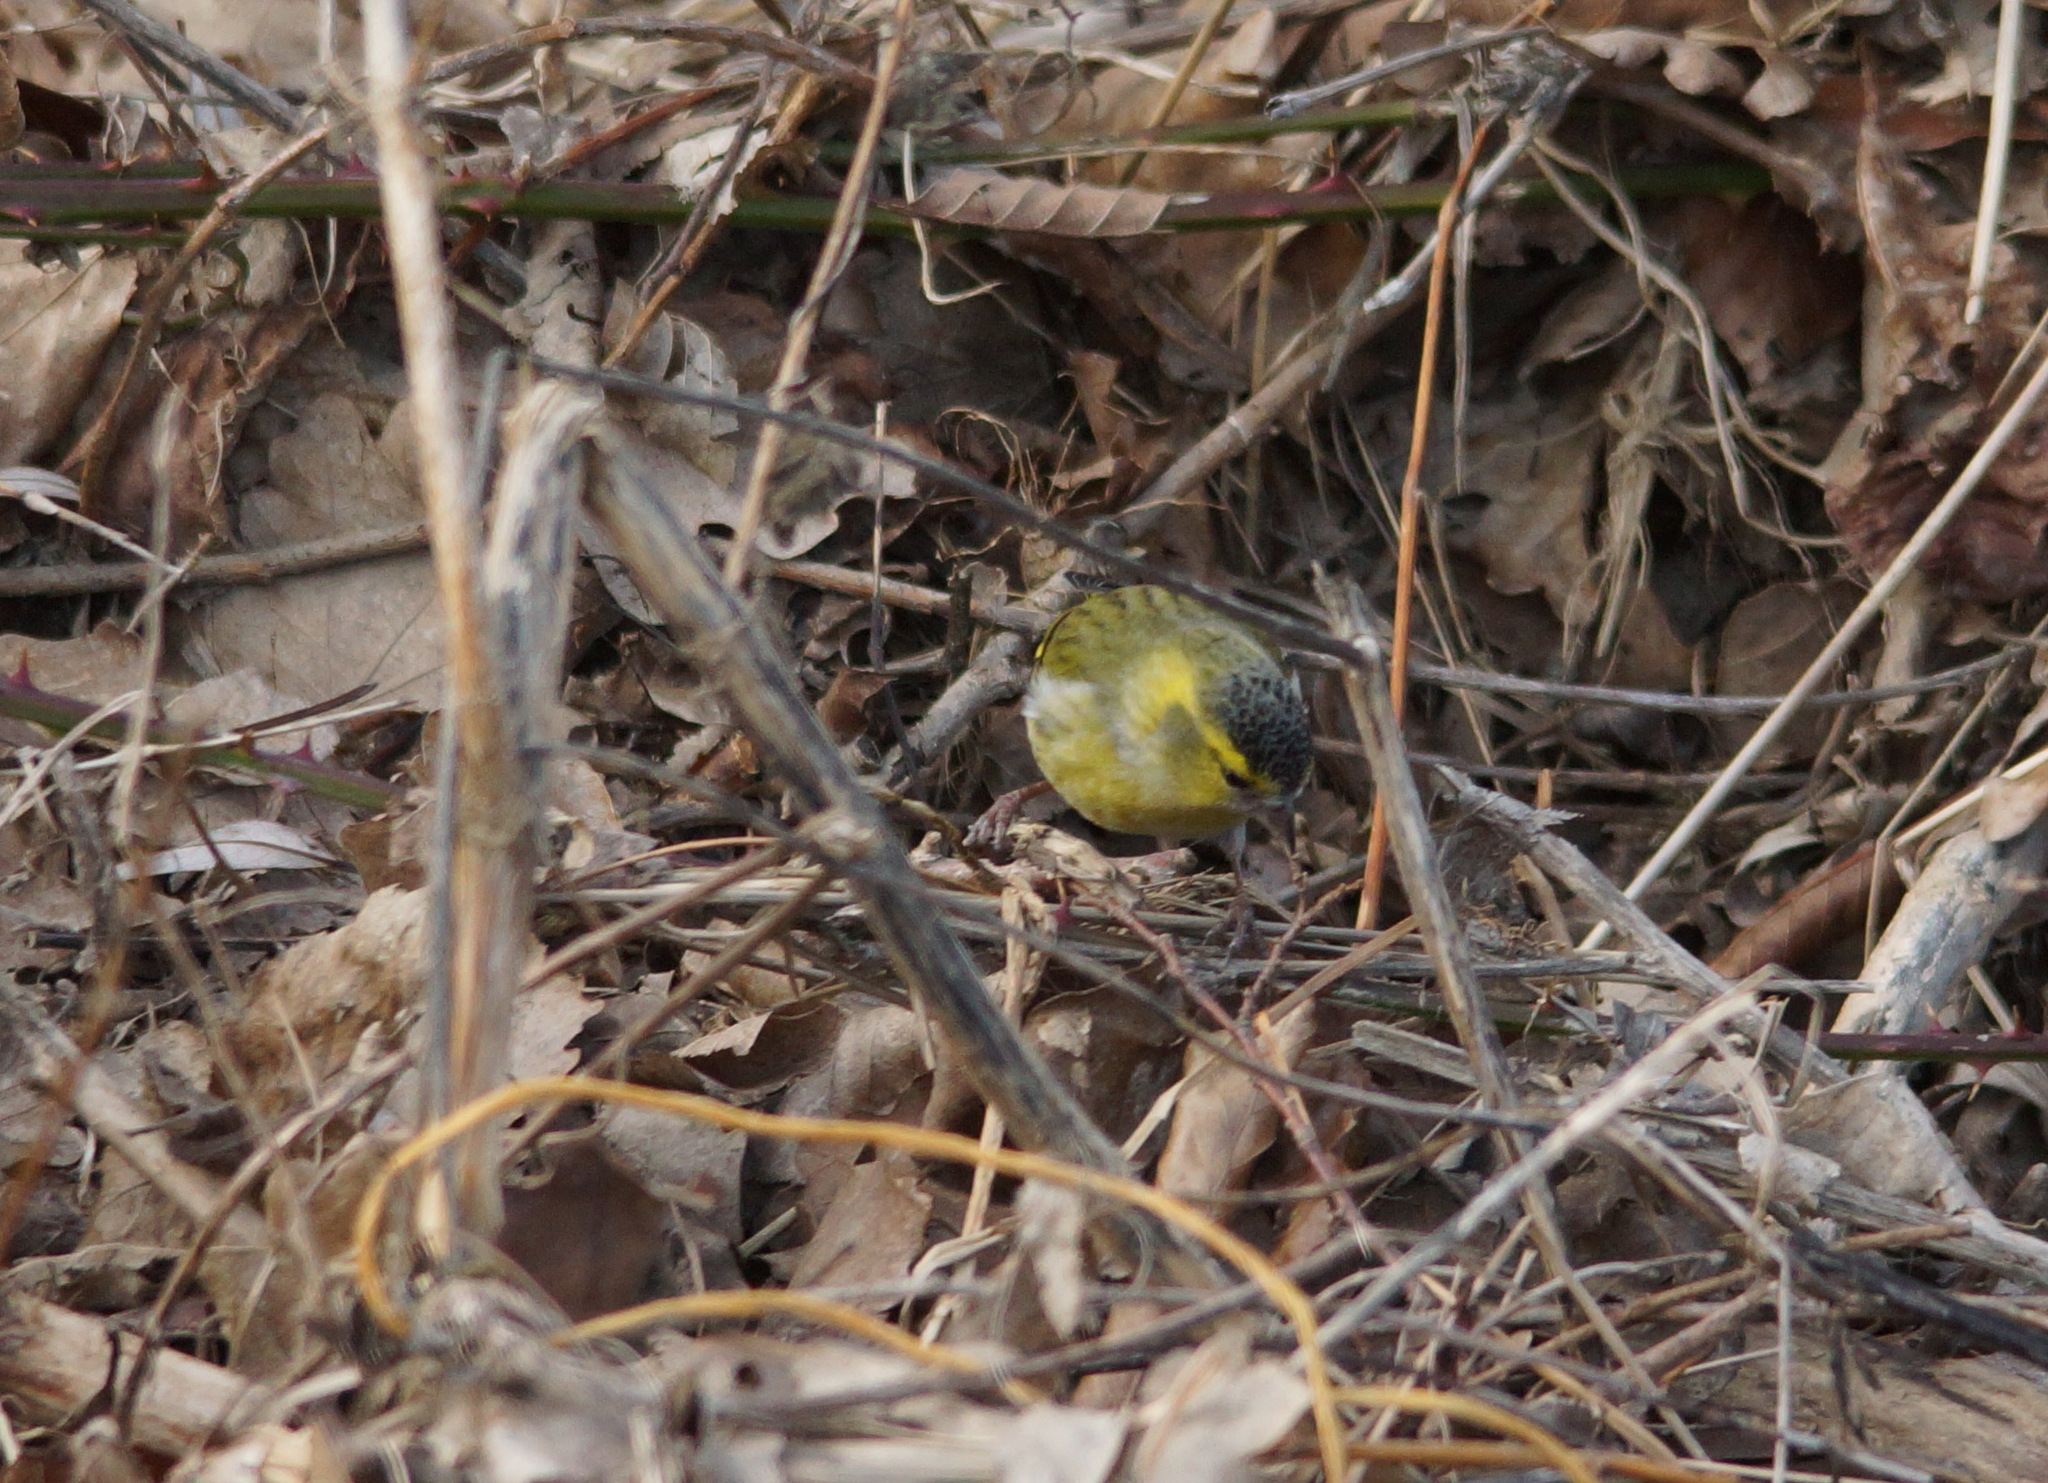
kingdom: Animalia
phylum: Chordata
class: Aves
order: Passeriformes
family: Fringillidae
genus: Spinus
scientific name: Spinus spinus
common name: Eurasian siskin
